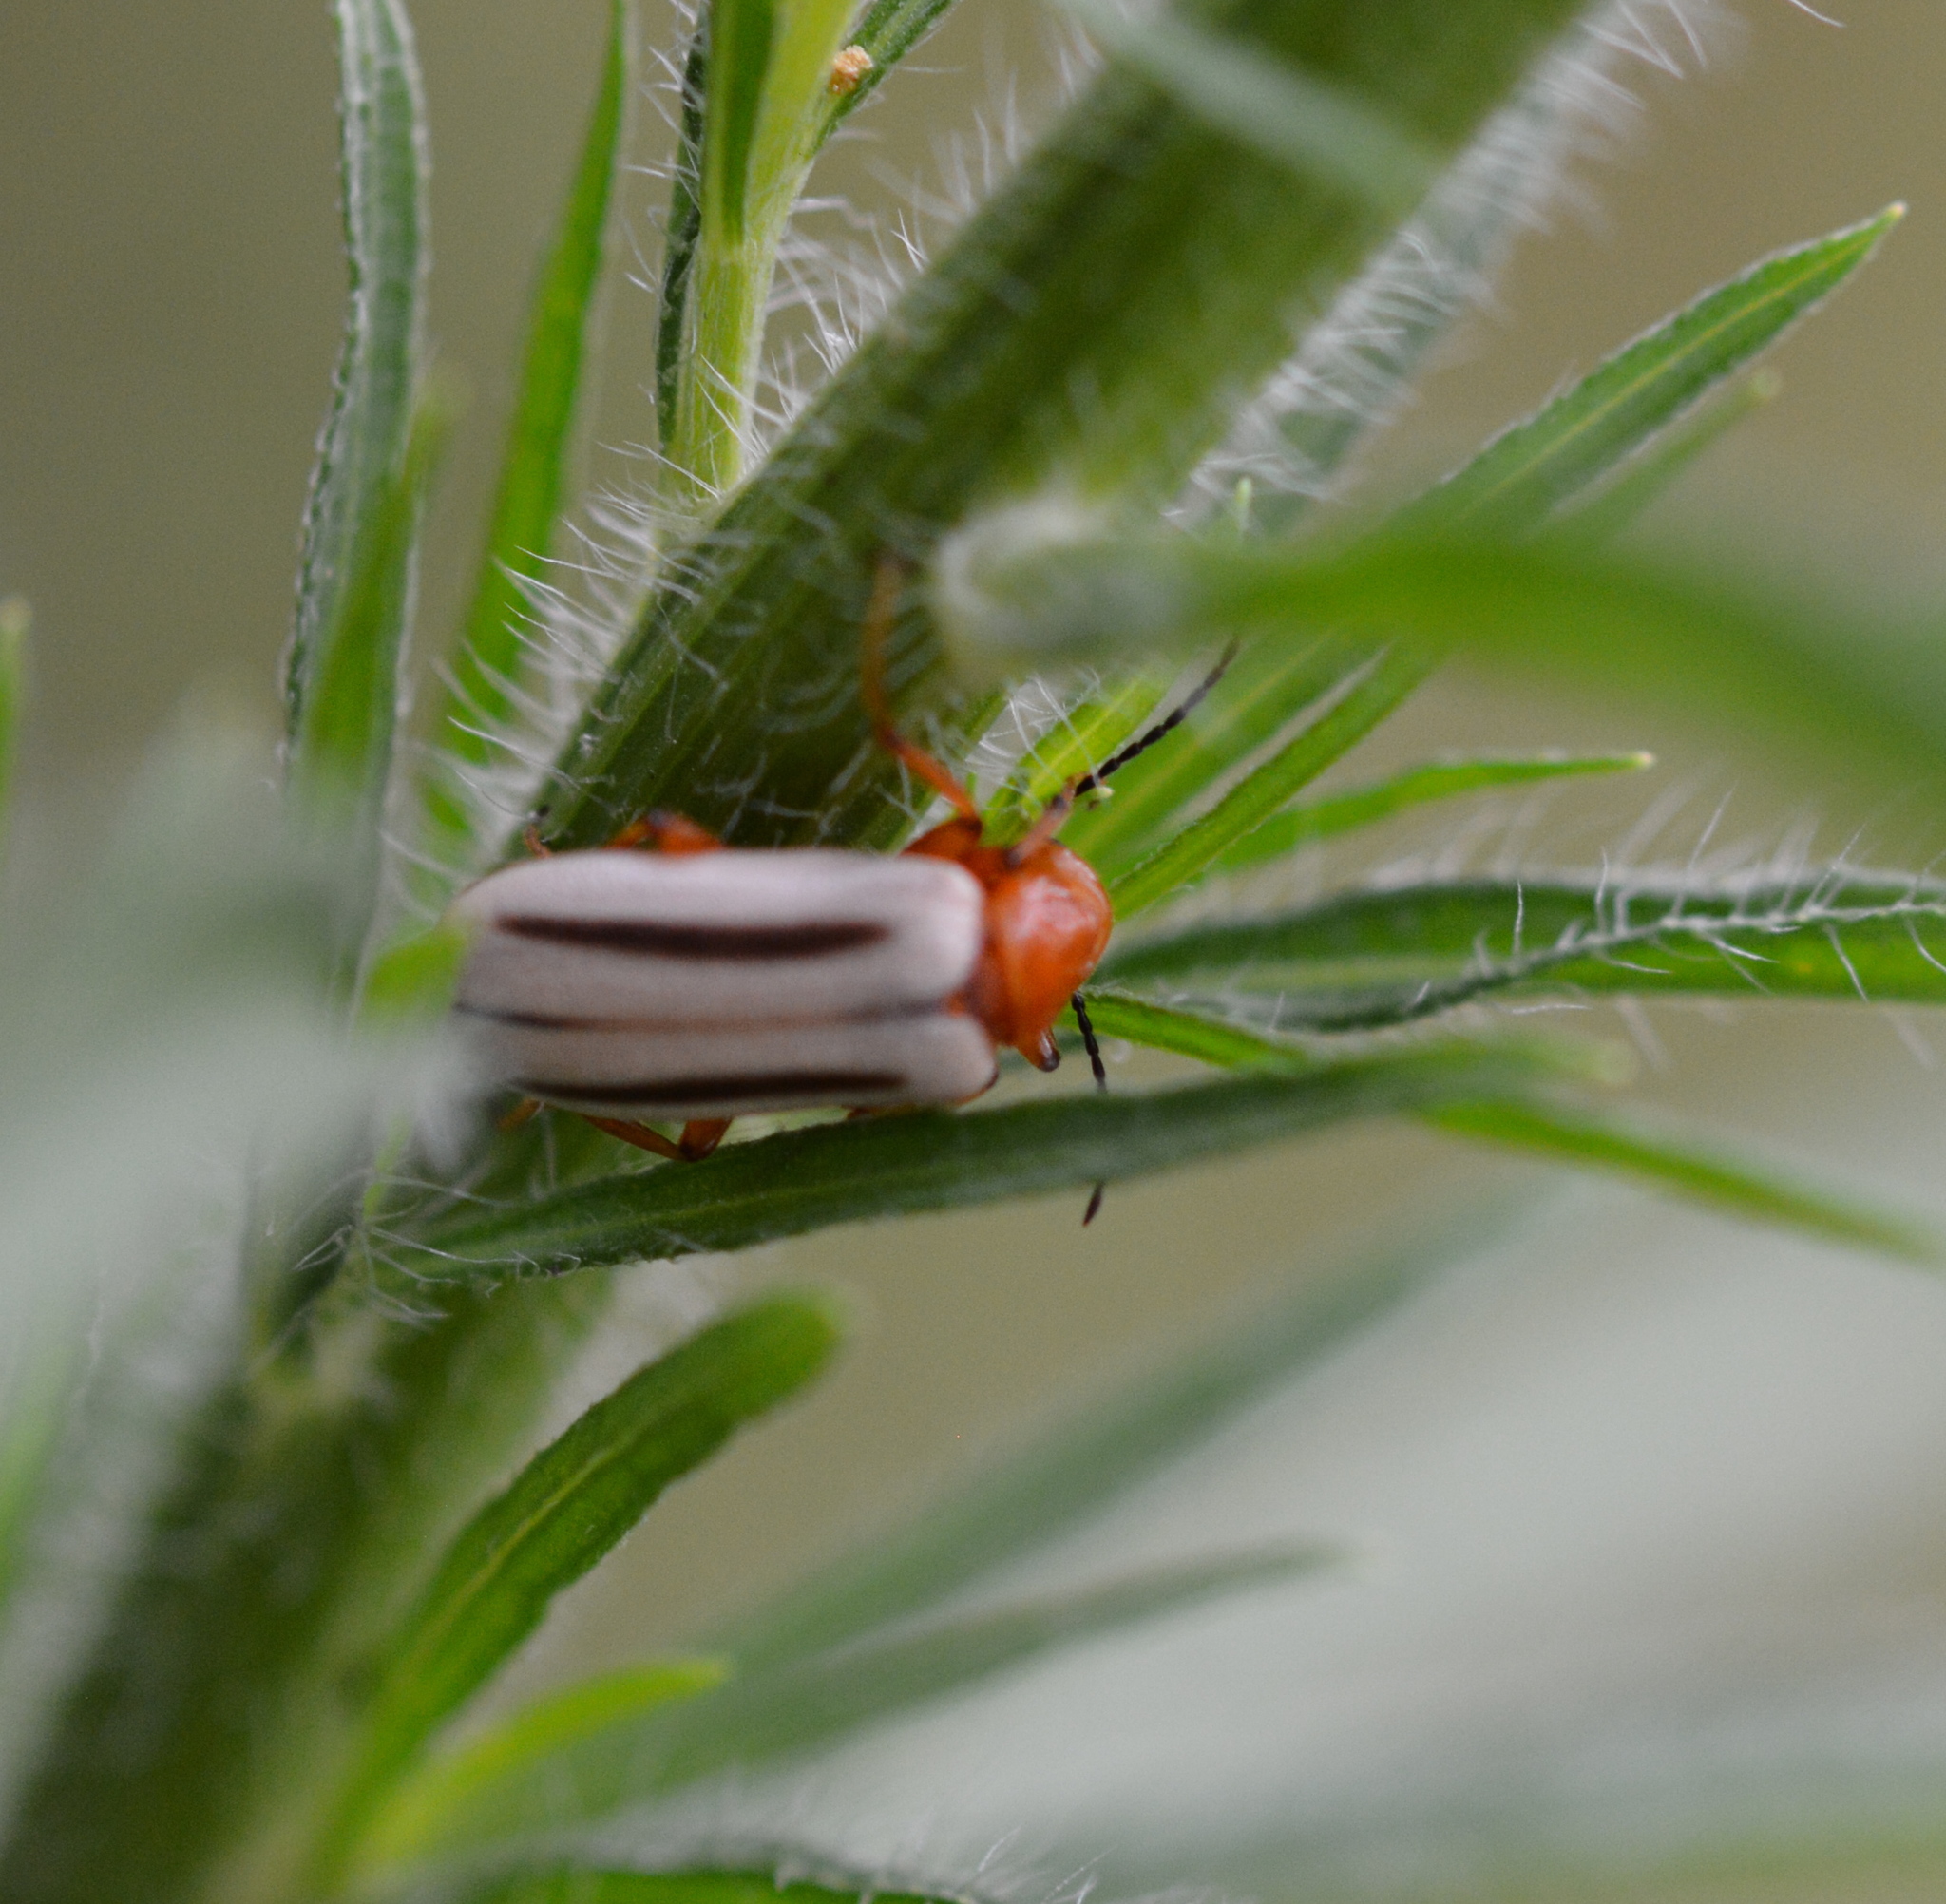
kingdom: Animalia
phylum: Arthropoda
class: Insecta
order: Coleoptera
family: Meloidae
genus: Zonitis
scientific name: Zonitis bilineata
